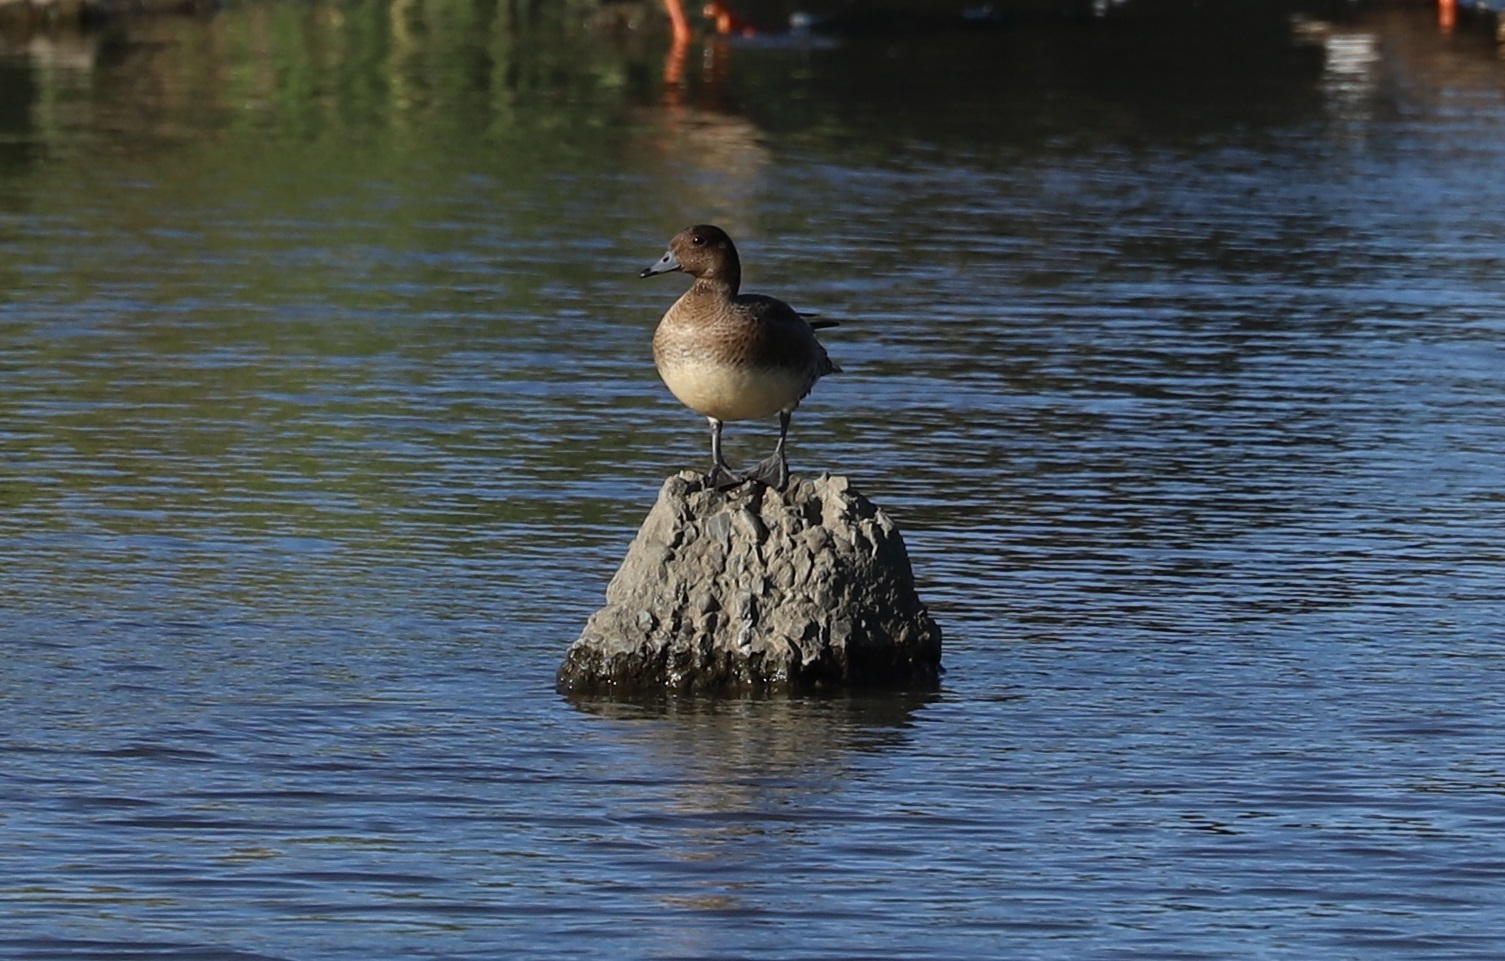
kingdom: Animalia
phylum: Chordata
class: Aves
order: Anseriformes
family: Anatidae
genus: Mareca
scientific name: Mareca penelope
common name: Eurasian wigeon
